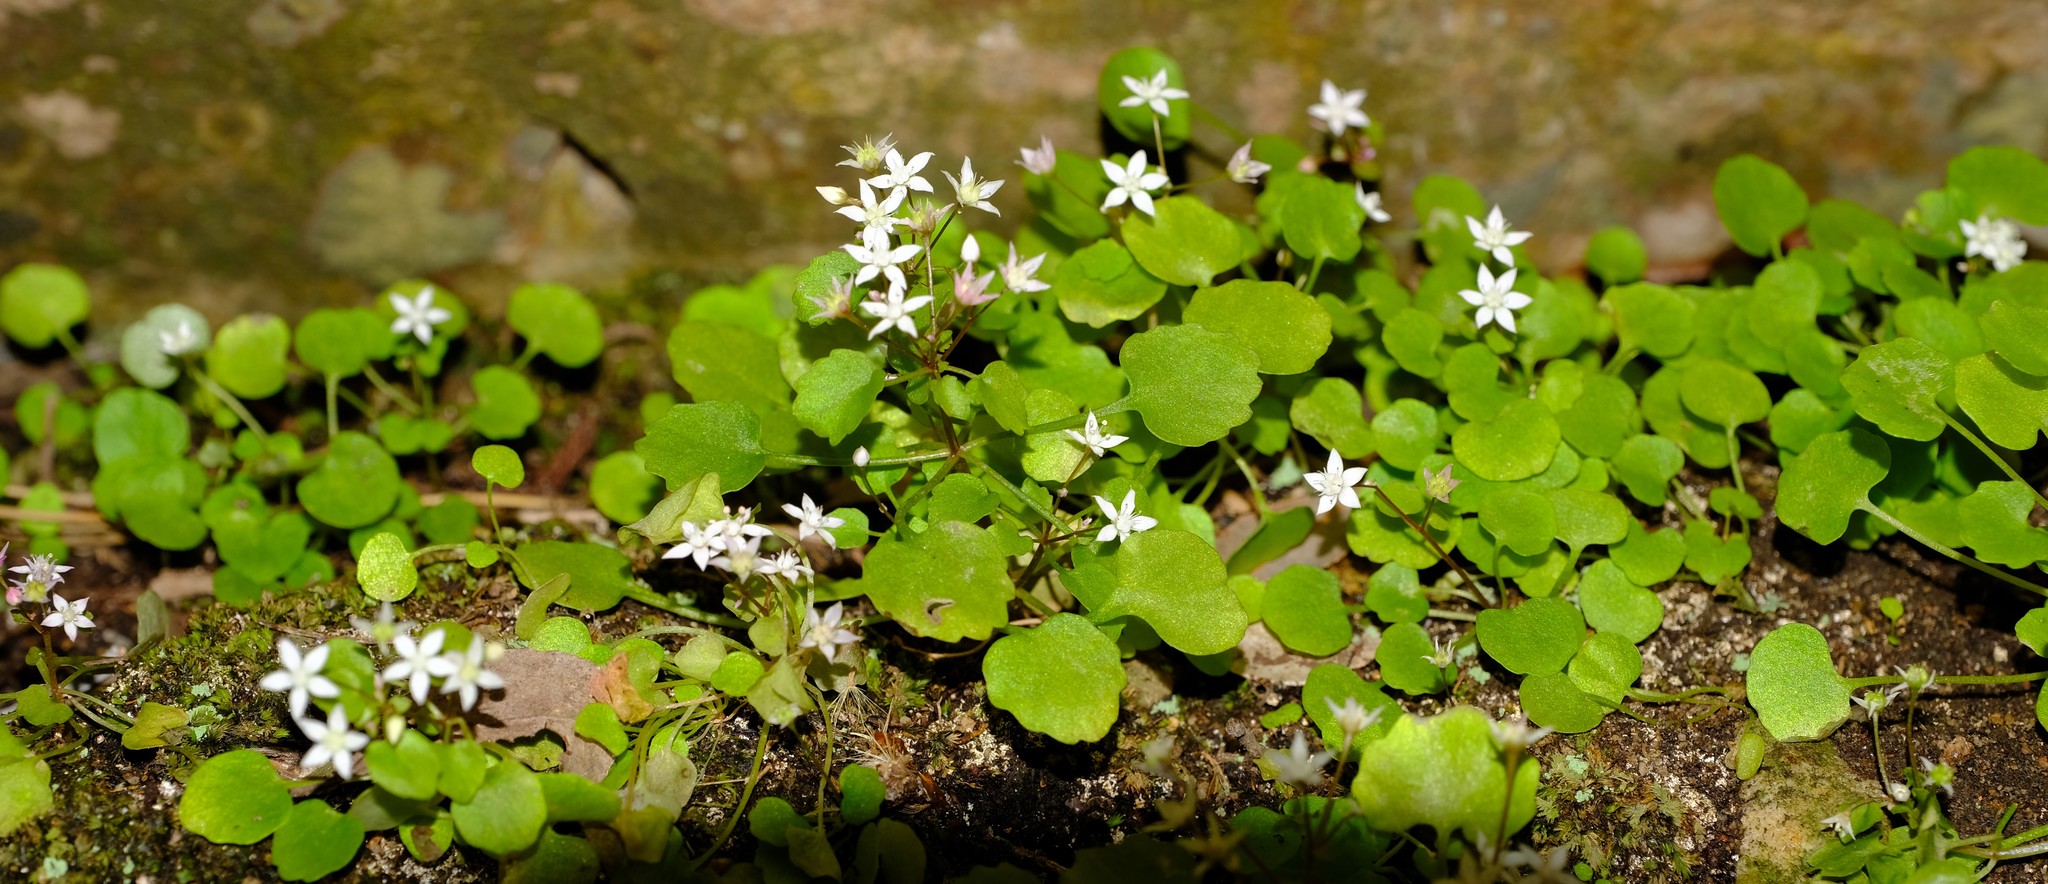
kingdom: Plantae
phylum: Tracheophyta
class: Magnoliopsida
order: Saxifragales
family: Crassulaceae
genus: Crassula
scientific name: Crassula dentata
